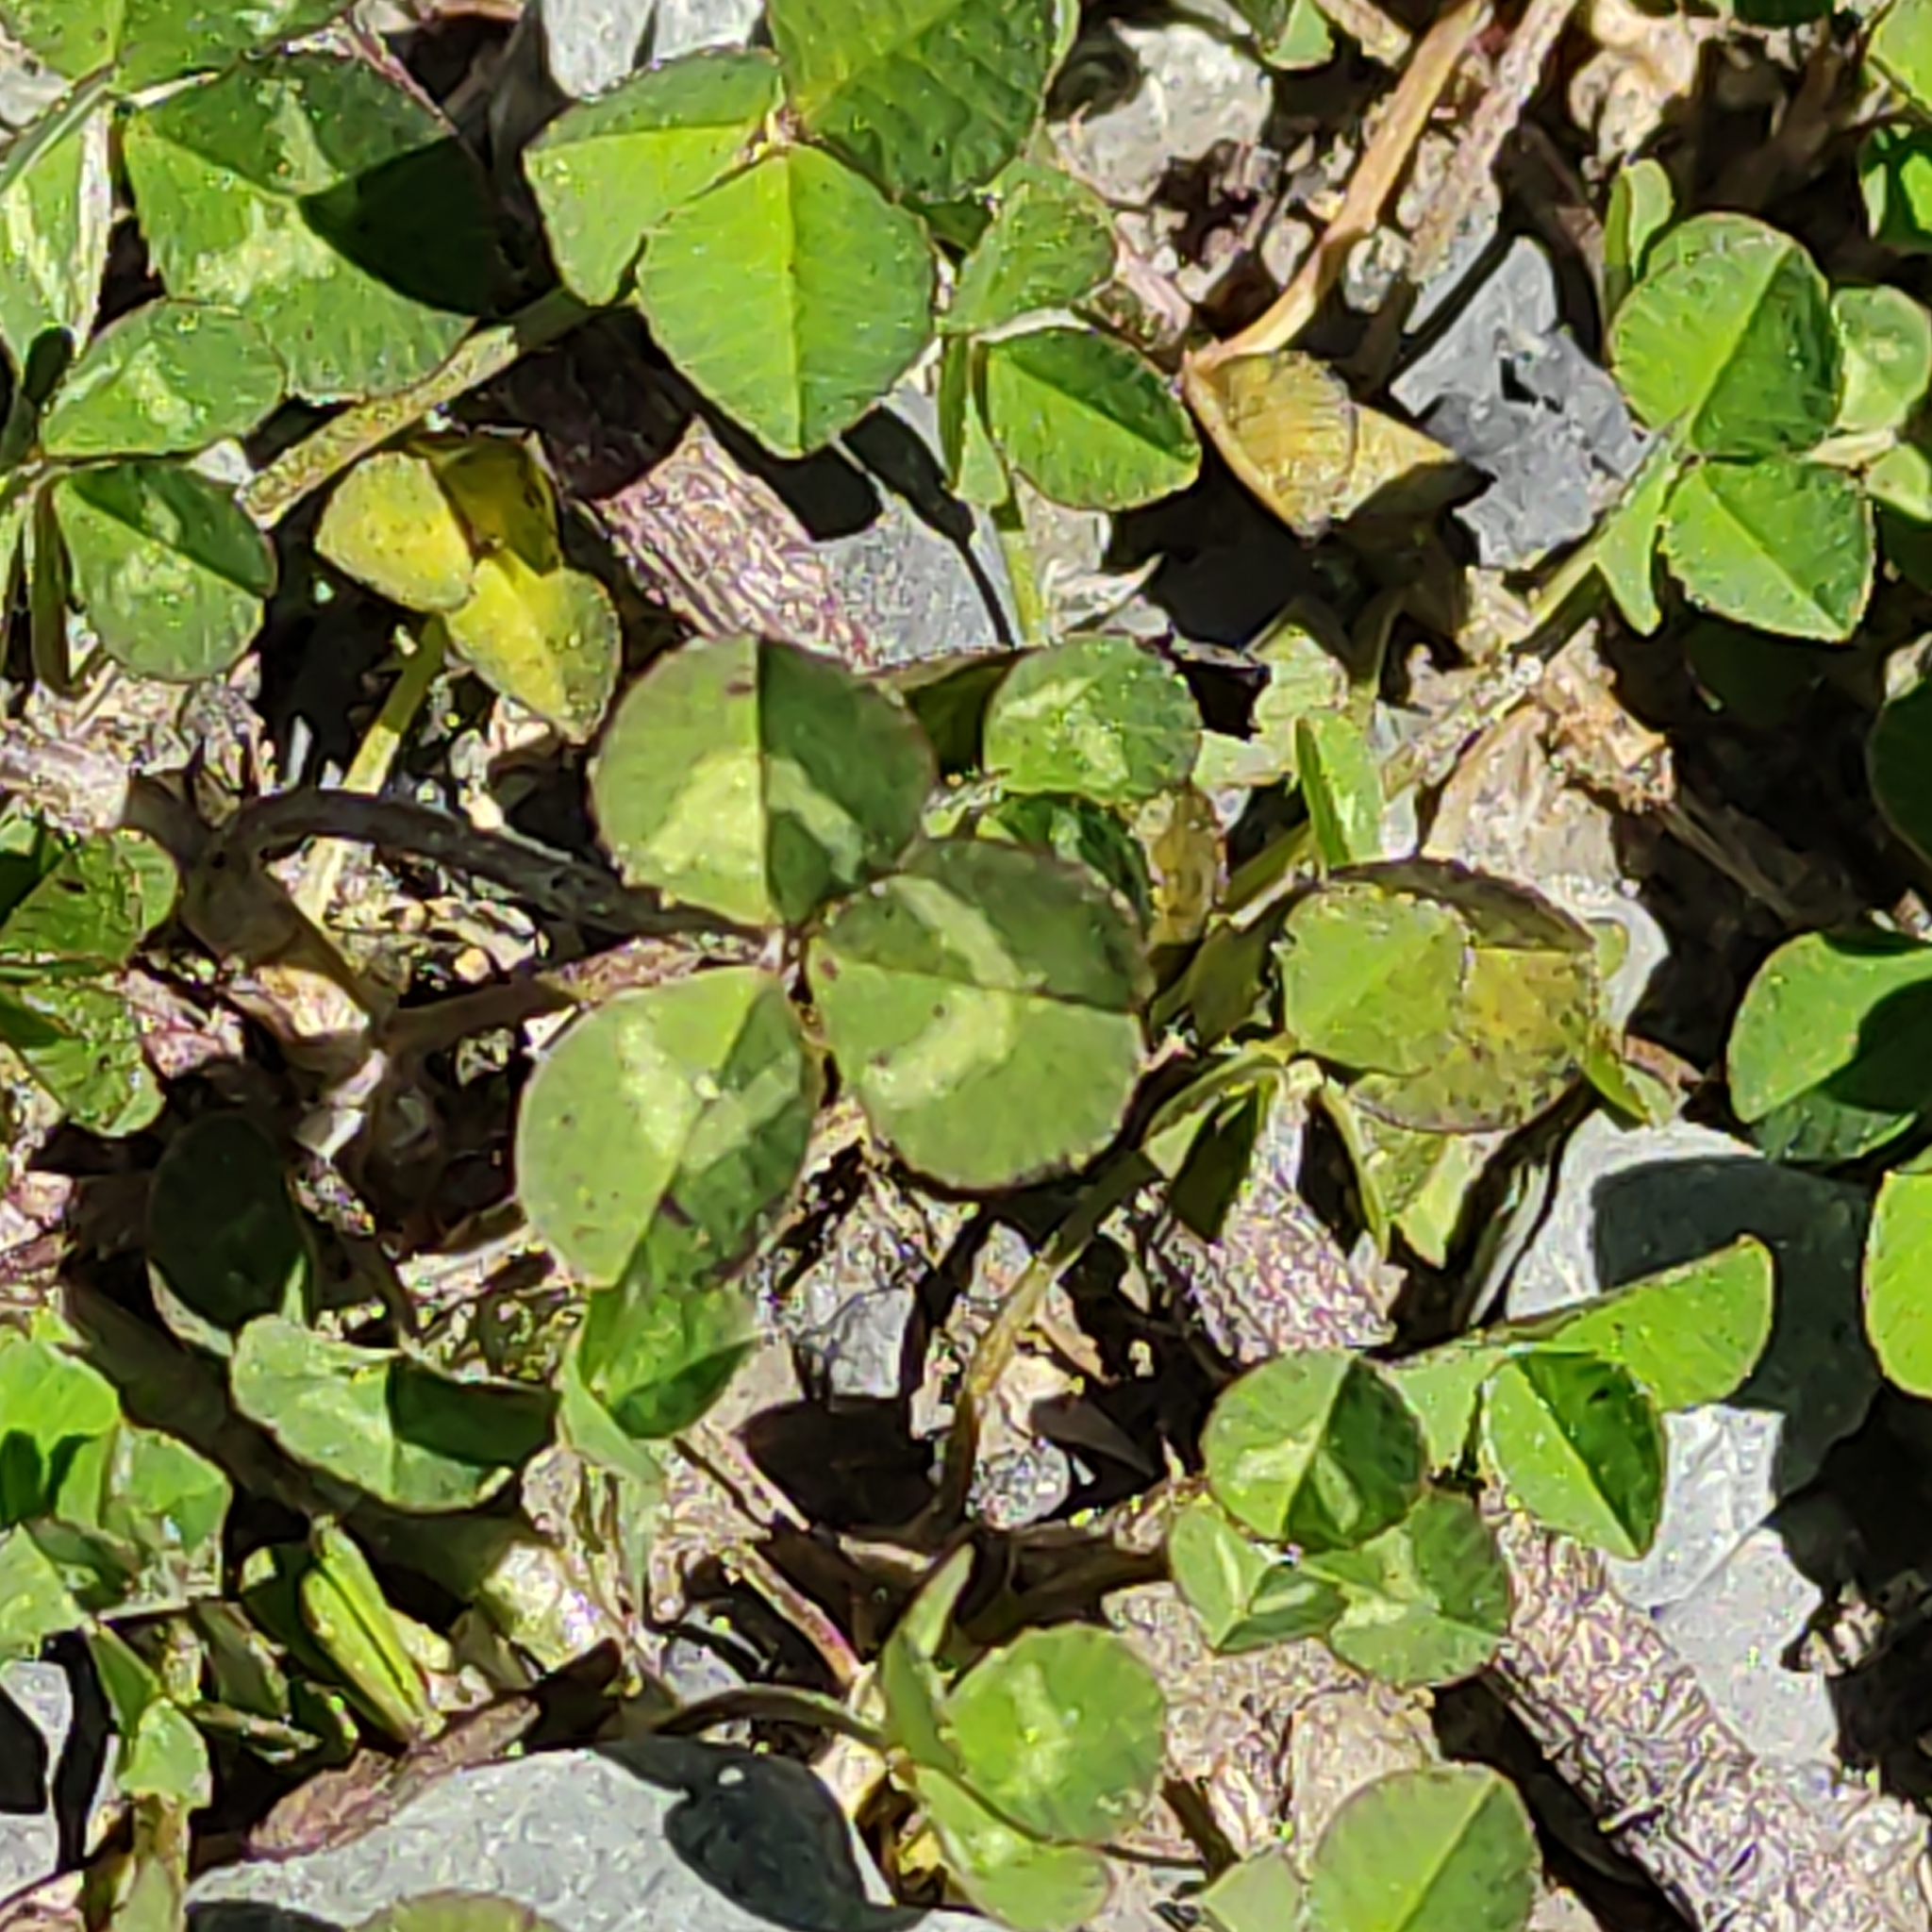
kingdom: Plantae
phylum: Tracheophyta
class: Magnoliopsida
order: Fabales
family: Fabaceae
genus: Trifolium
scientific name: Trifolium repens
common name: White clover
